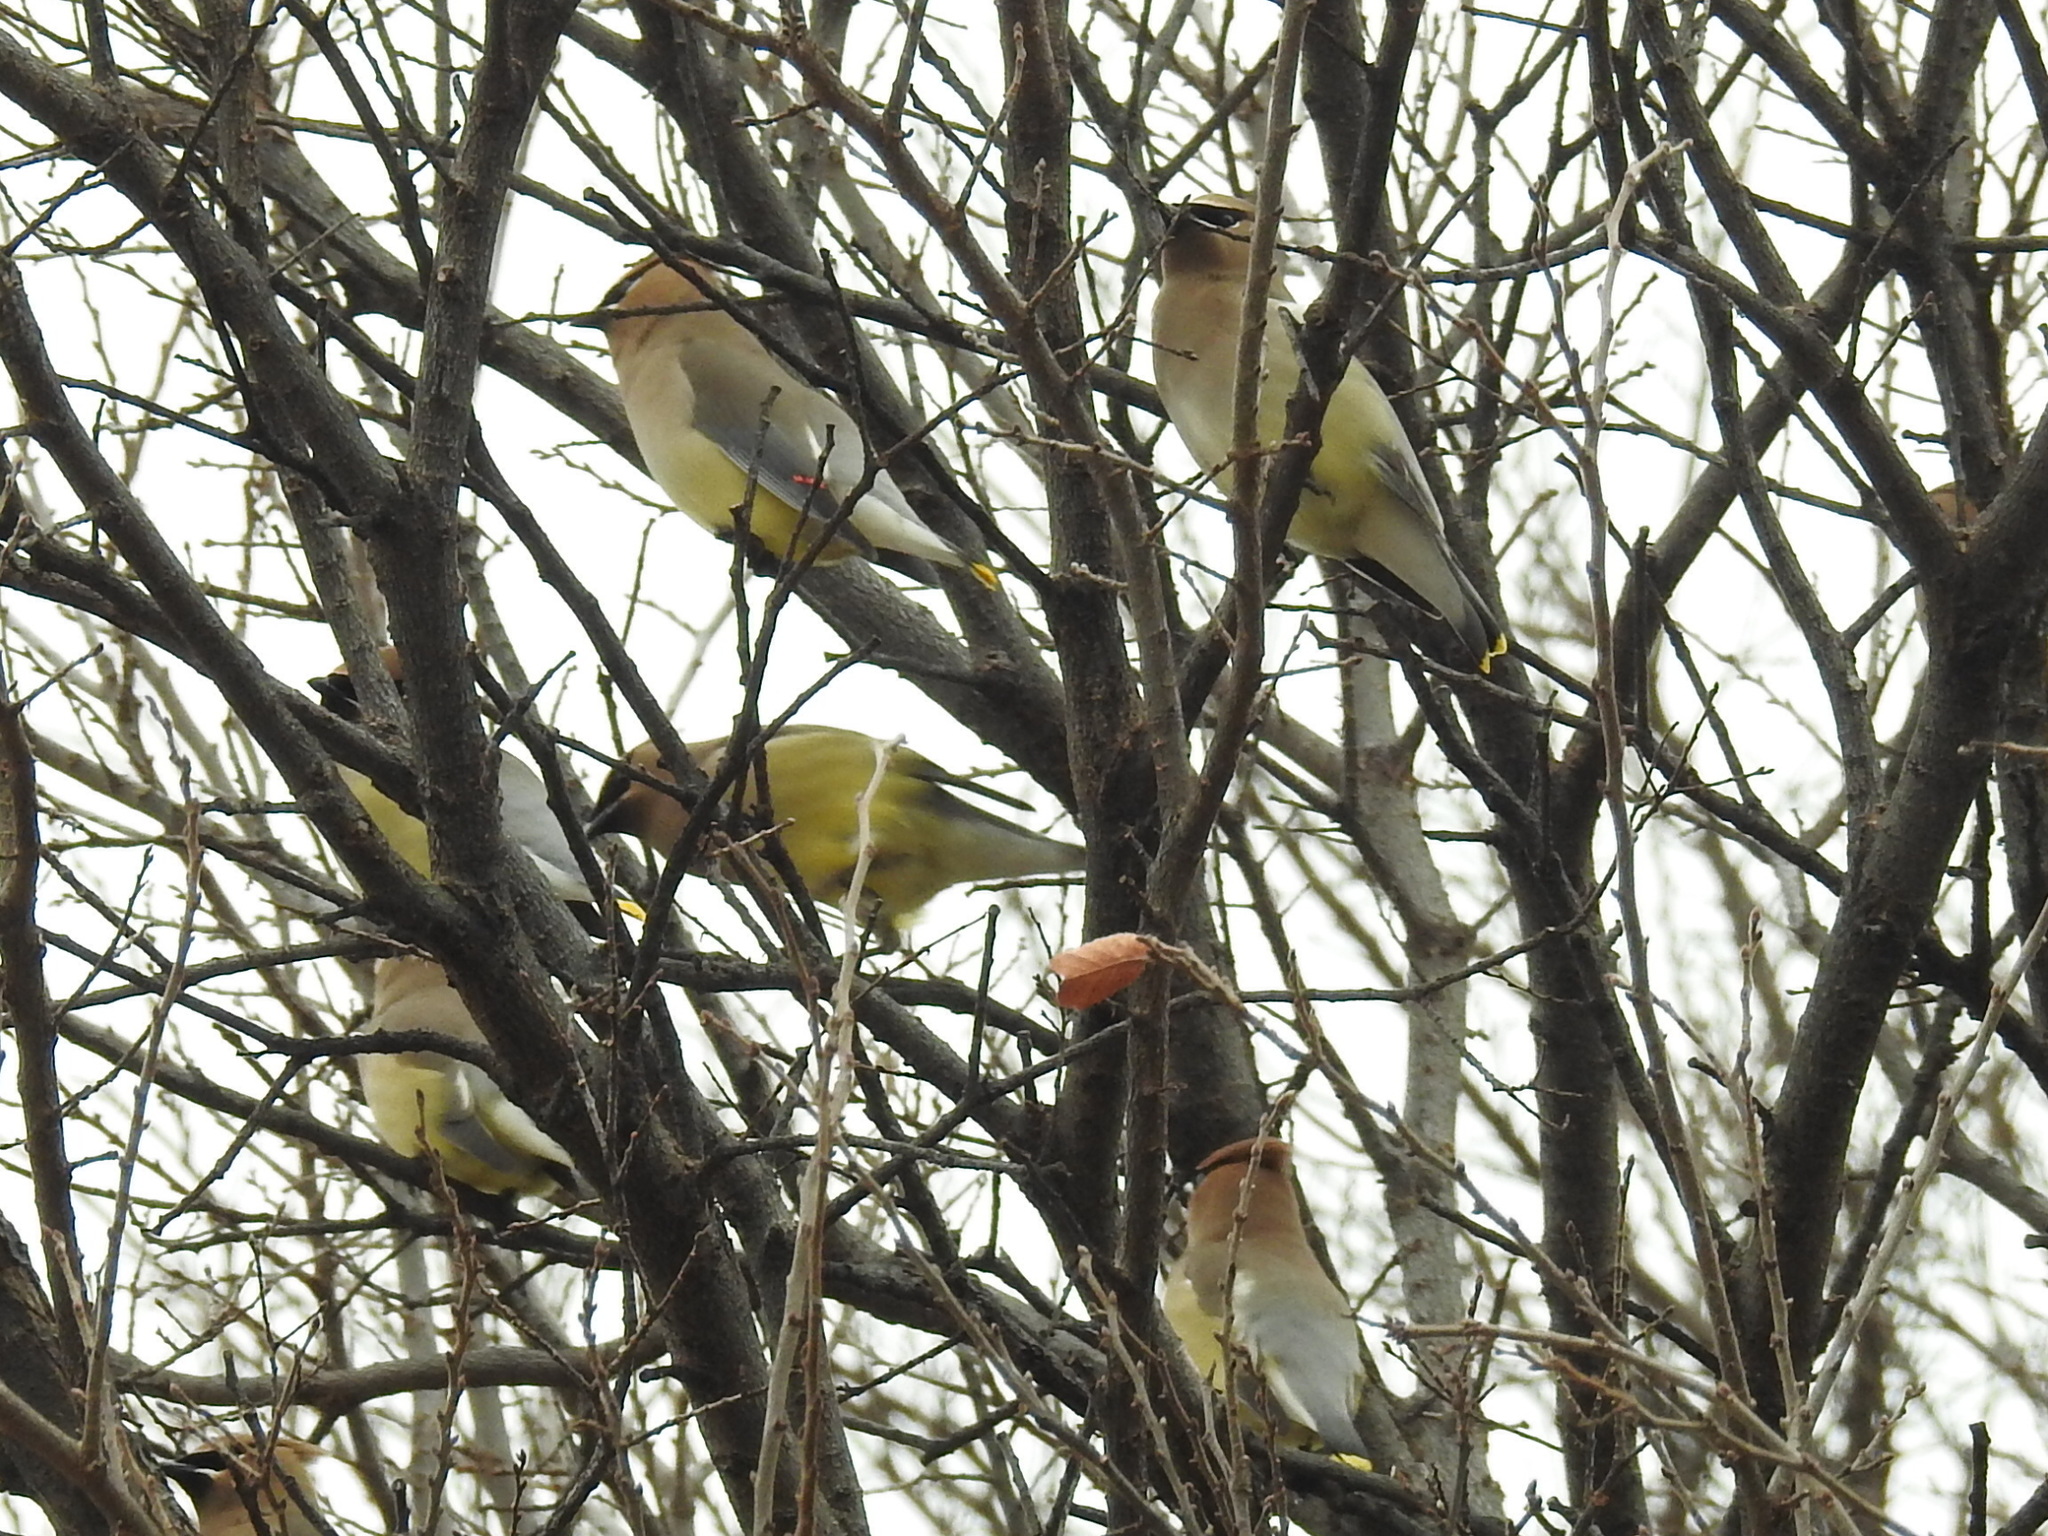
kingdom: Animalia
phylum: Chordata
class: Aves
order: Passeriformes
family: Bombycillidae
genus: Bombycilla
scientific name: Bombycilla cedrorum
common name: Cedar waxwing
